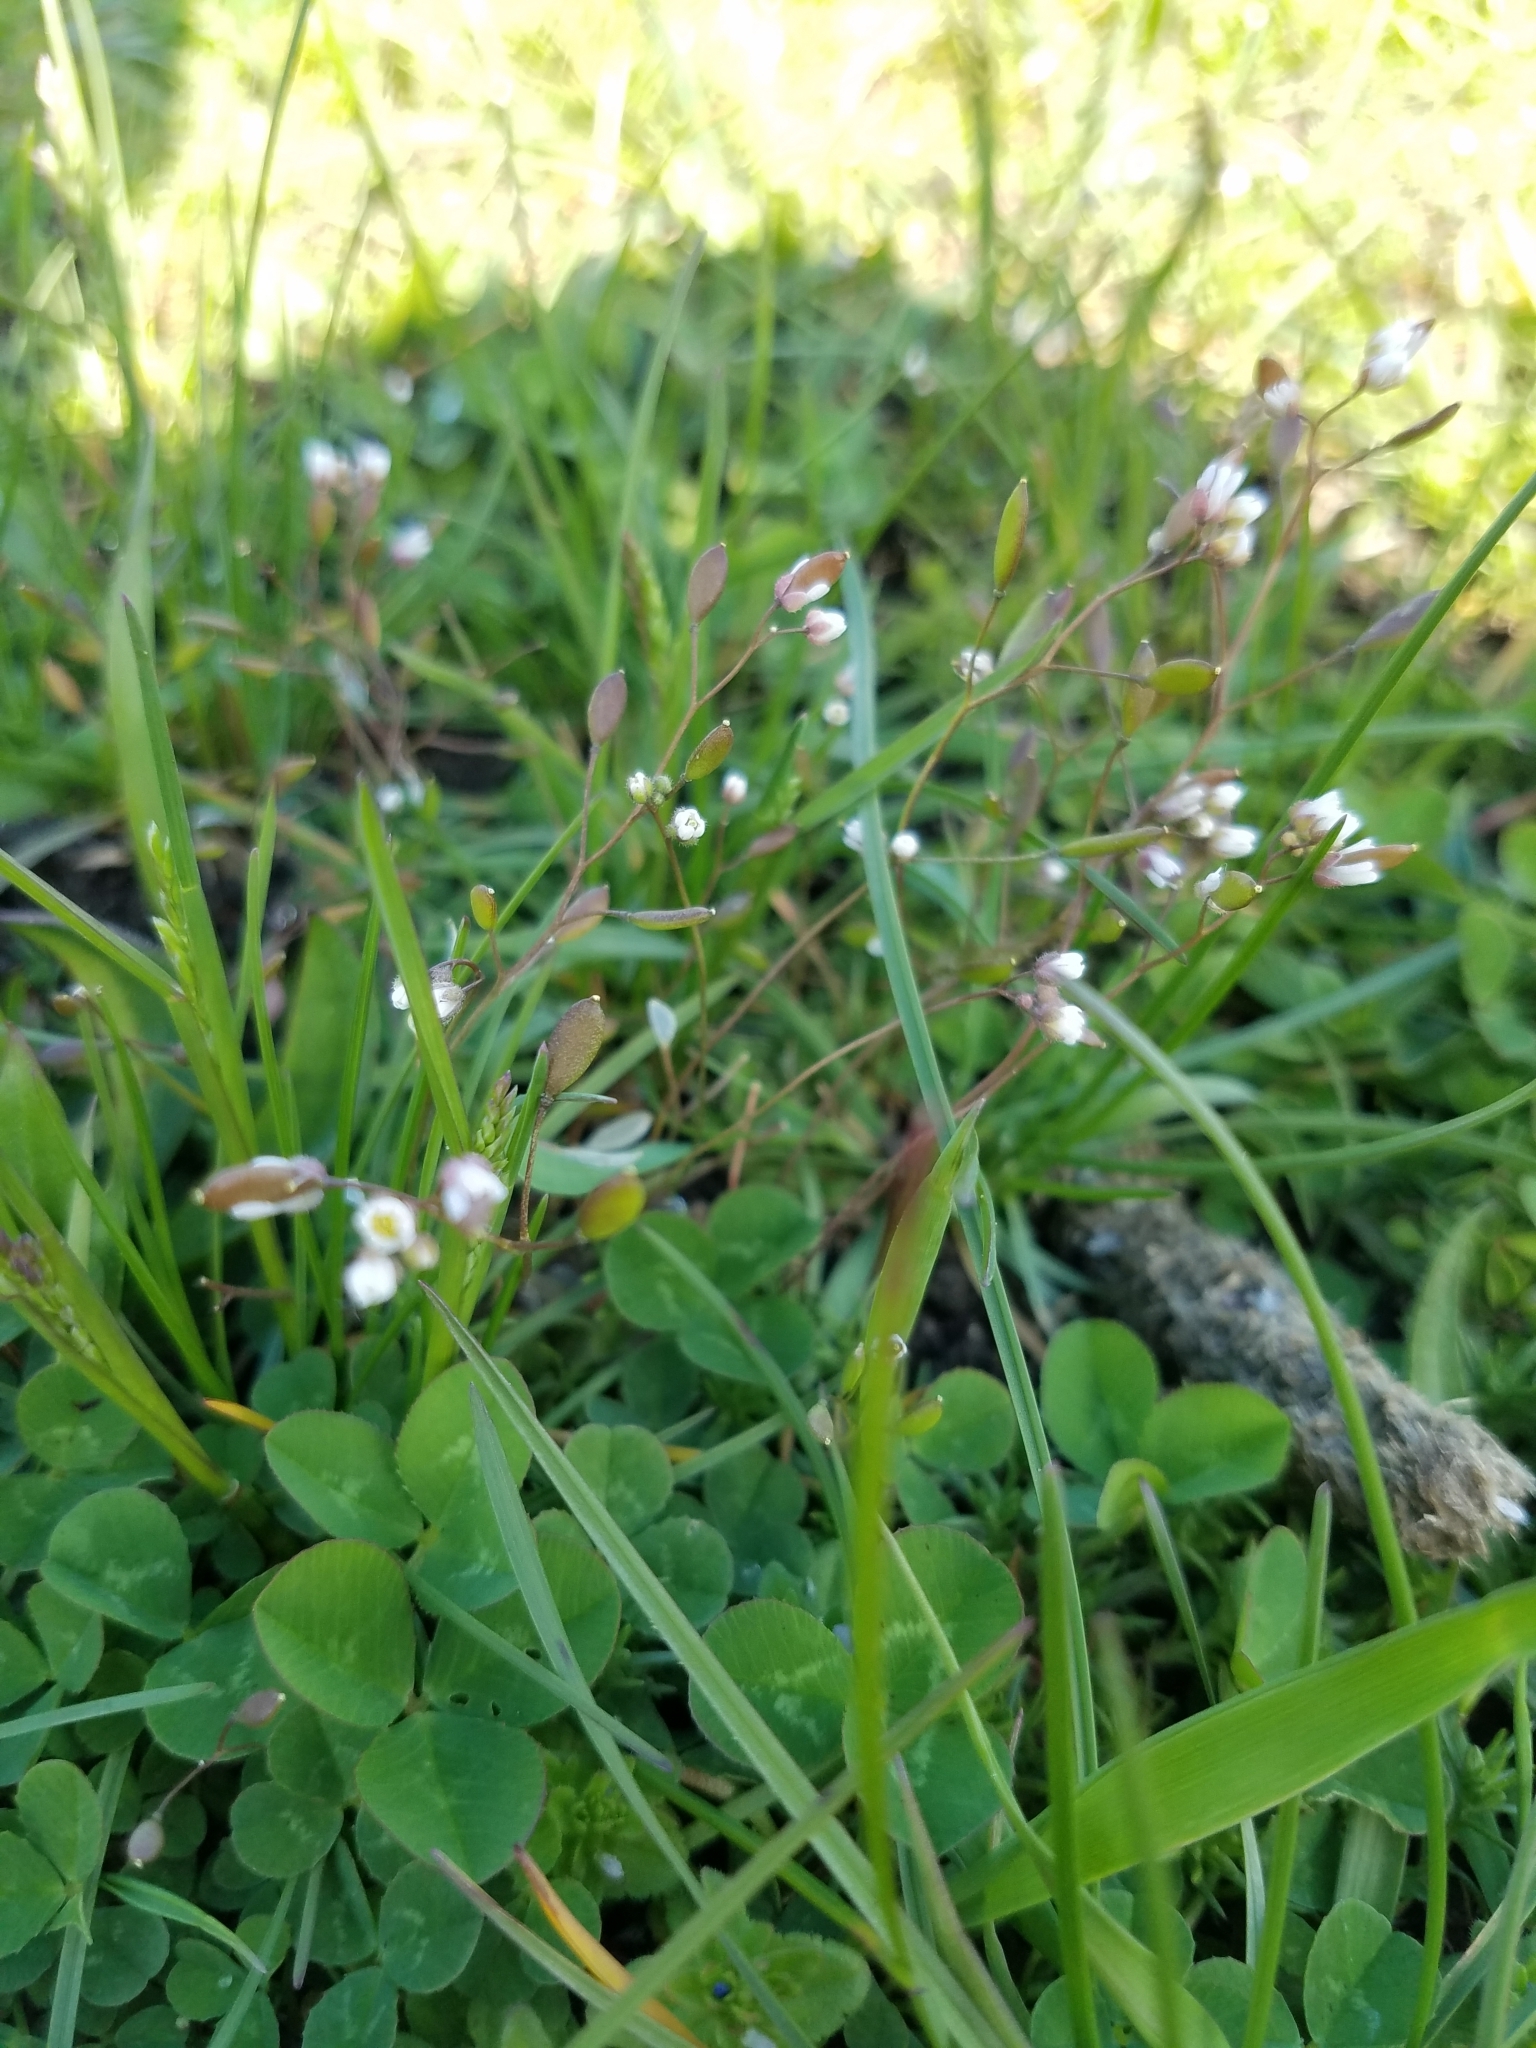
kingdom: Plantae
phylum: Tracheophyta
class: Magnoliopsida
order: Brassicales
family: Brassicaceae
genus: Draba
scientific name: Draba verna
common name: Spring draba
